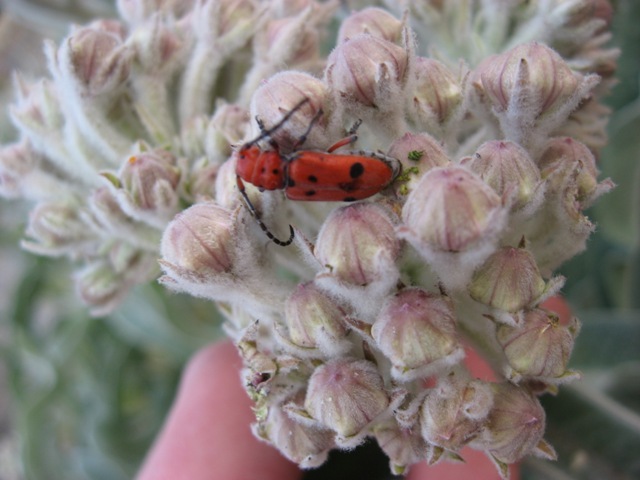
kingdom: Animalia
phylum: Arthropoda
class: Insecta
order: Coleoptera
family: Cerambycidae
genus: Tetraopes
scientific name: Tetraopes basalis
